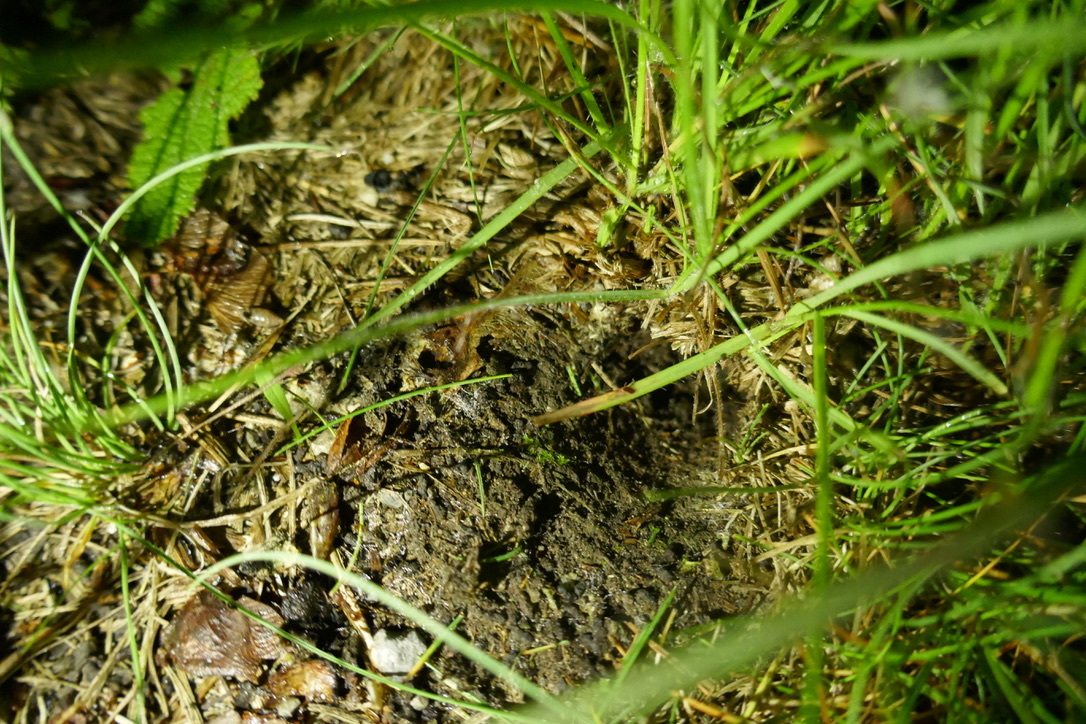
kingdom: Animalia
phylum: Arthropoda
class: Insecta
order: Orthoptera
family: Gryllidae
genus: Gryllus
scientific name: Gryllus campestris
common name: Field cricket
